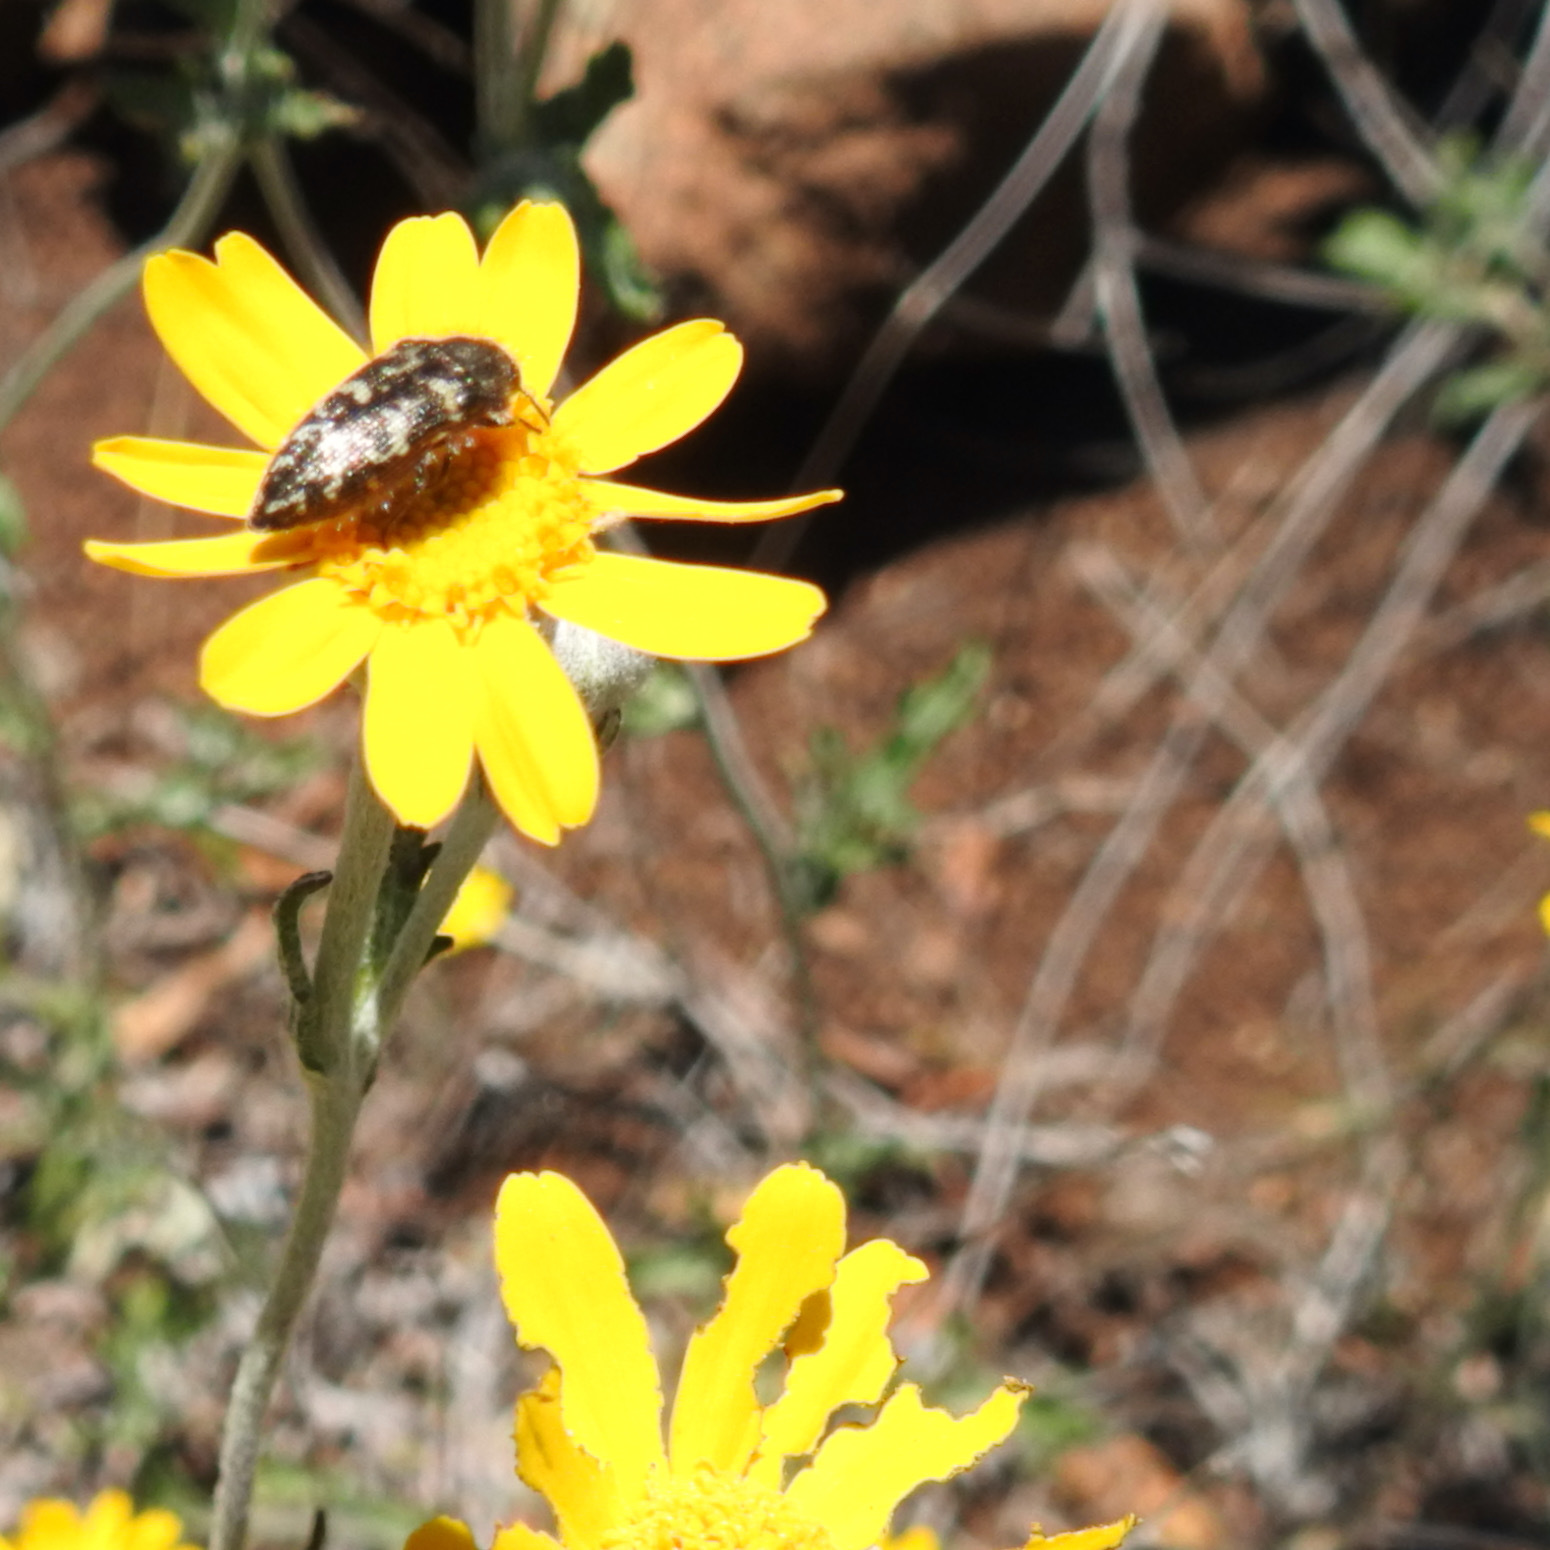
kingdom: Plantae
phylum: Tracheophyta
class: Magnoliopsida
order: Asterales
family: Asteraceae
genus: Eriophyllum
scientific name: Eriophyllum lanatum
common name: Common woolly-sunflower
